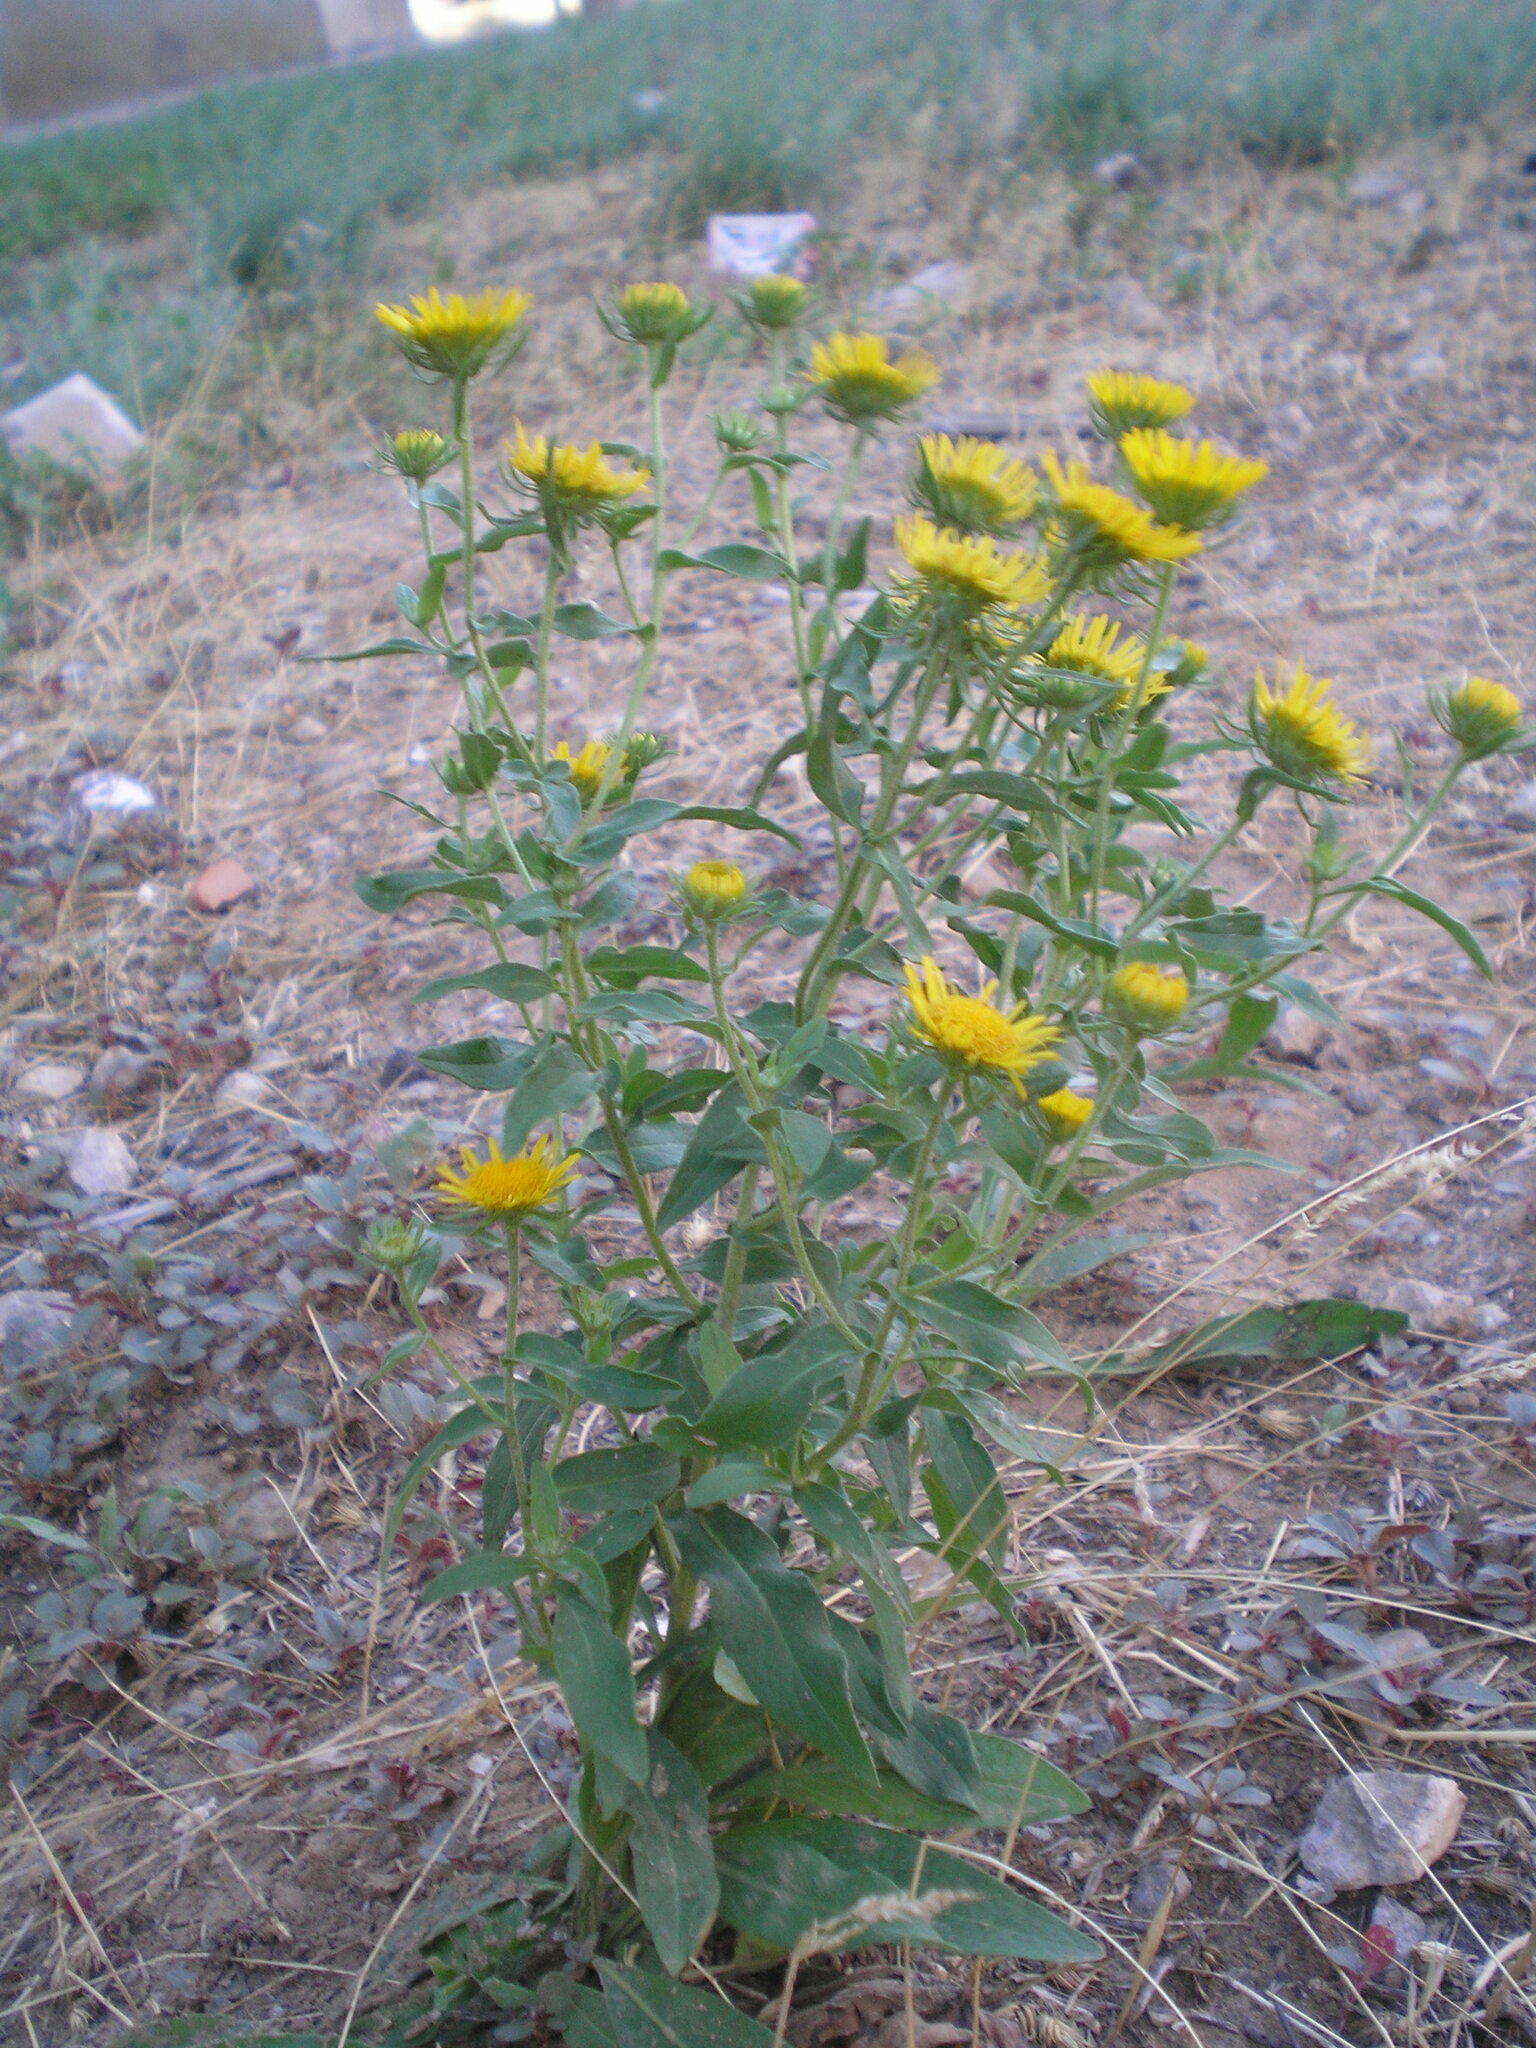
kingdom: Plantae
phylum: Tracheophyta
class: Magnoliopsida
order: Asterales
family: Asteraceae
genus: Pentanema
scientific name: Pentanema britannicum
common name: British elecampane
